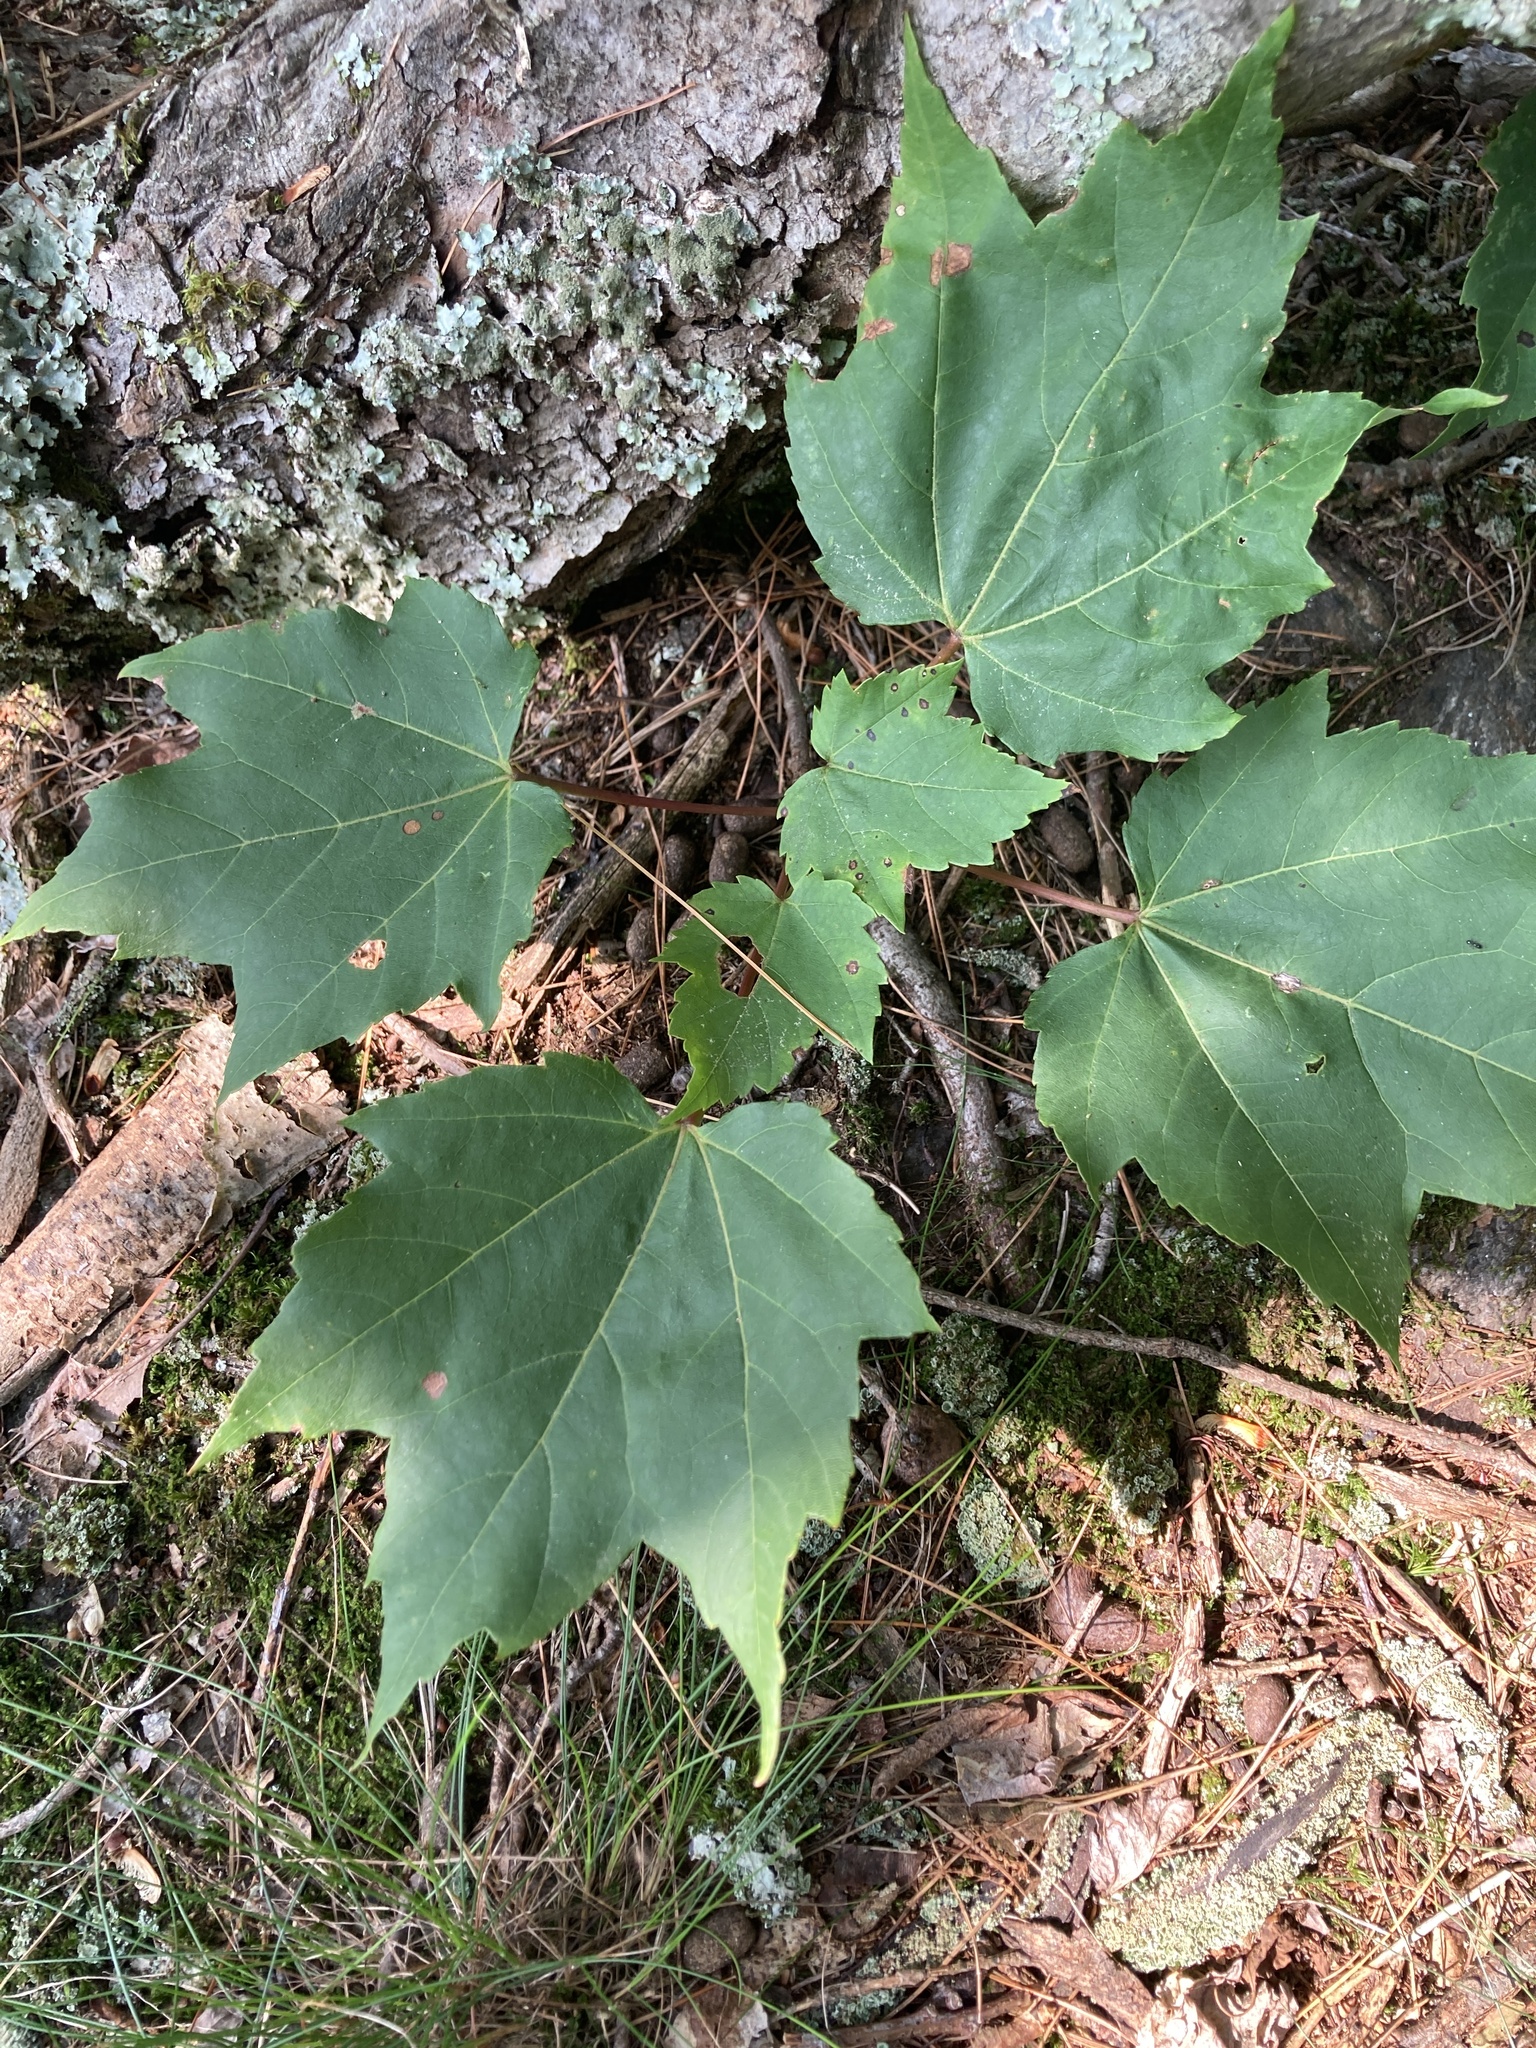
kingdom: Plantae
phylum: Tracheophyta
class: Magnoliopsida
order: Sapindales
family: Sapindaceae
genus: Acer
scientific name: Acer rubrum
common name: Red maple
